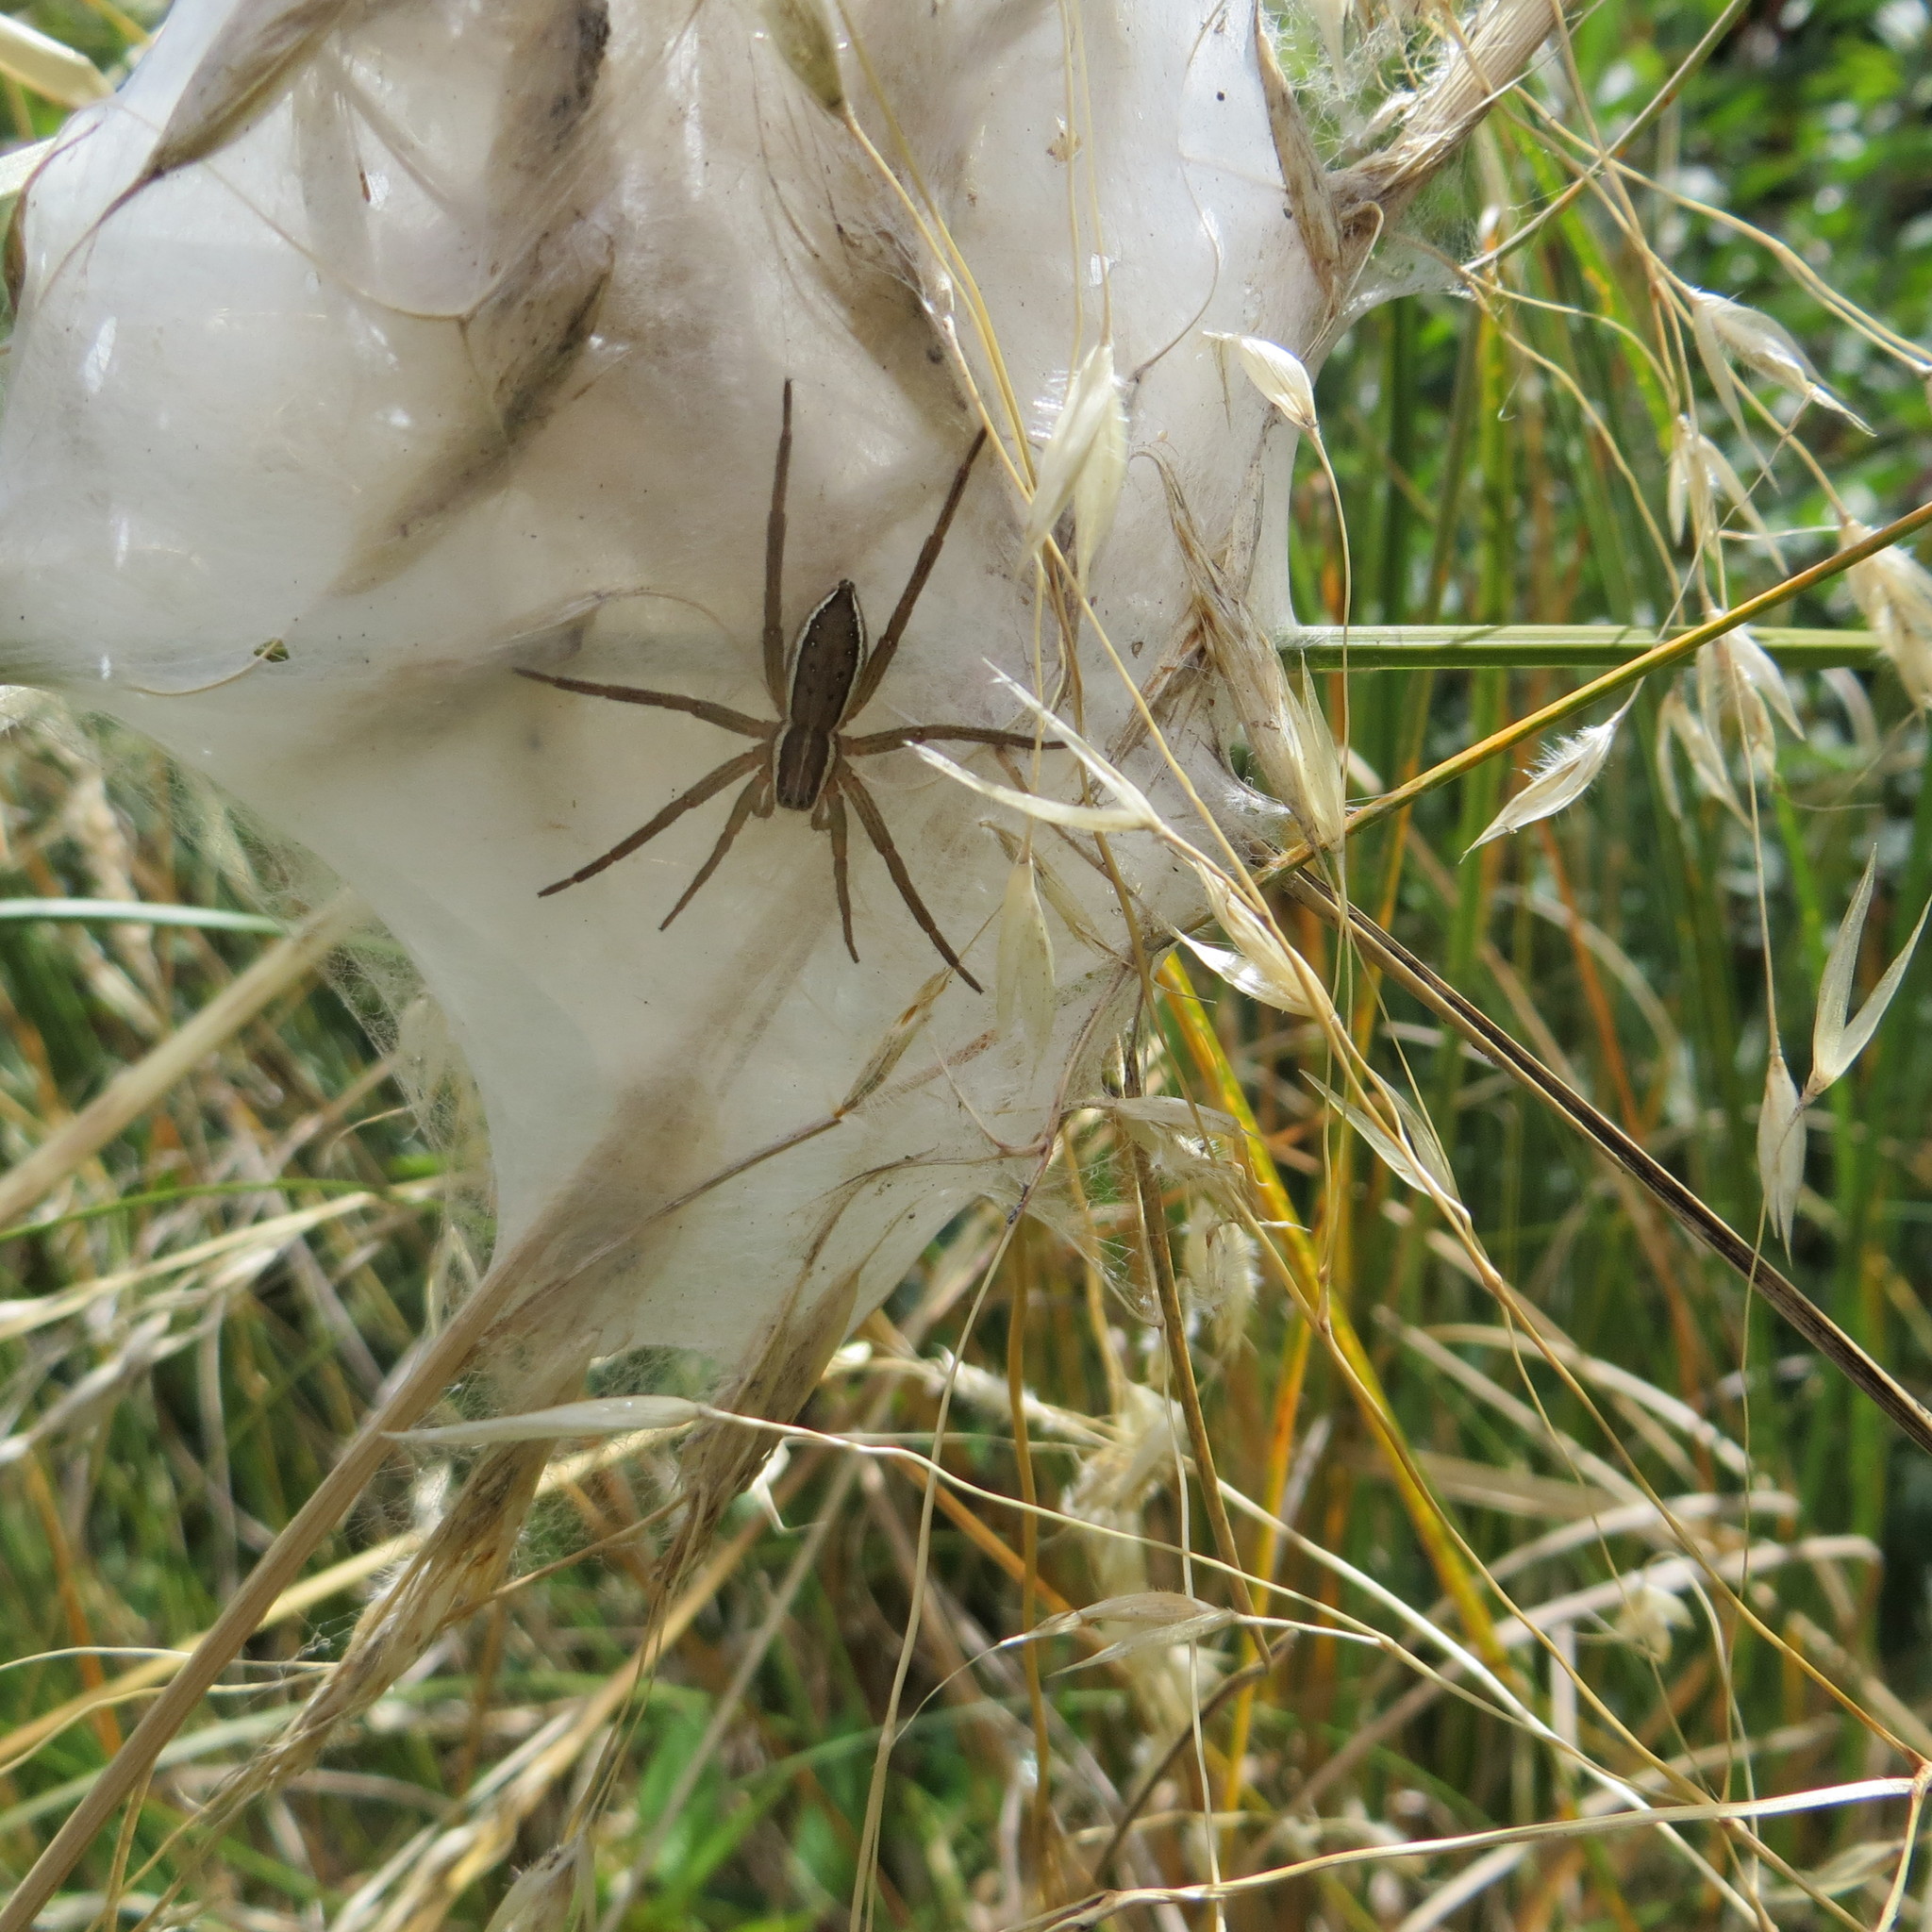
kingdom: Animalia
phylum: Arthropoda
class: Arachnida
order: Araneae
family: Pisauridae
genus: Dolomedes
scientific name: Dolomedes minor
